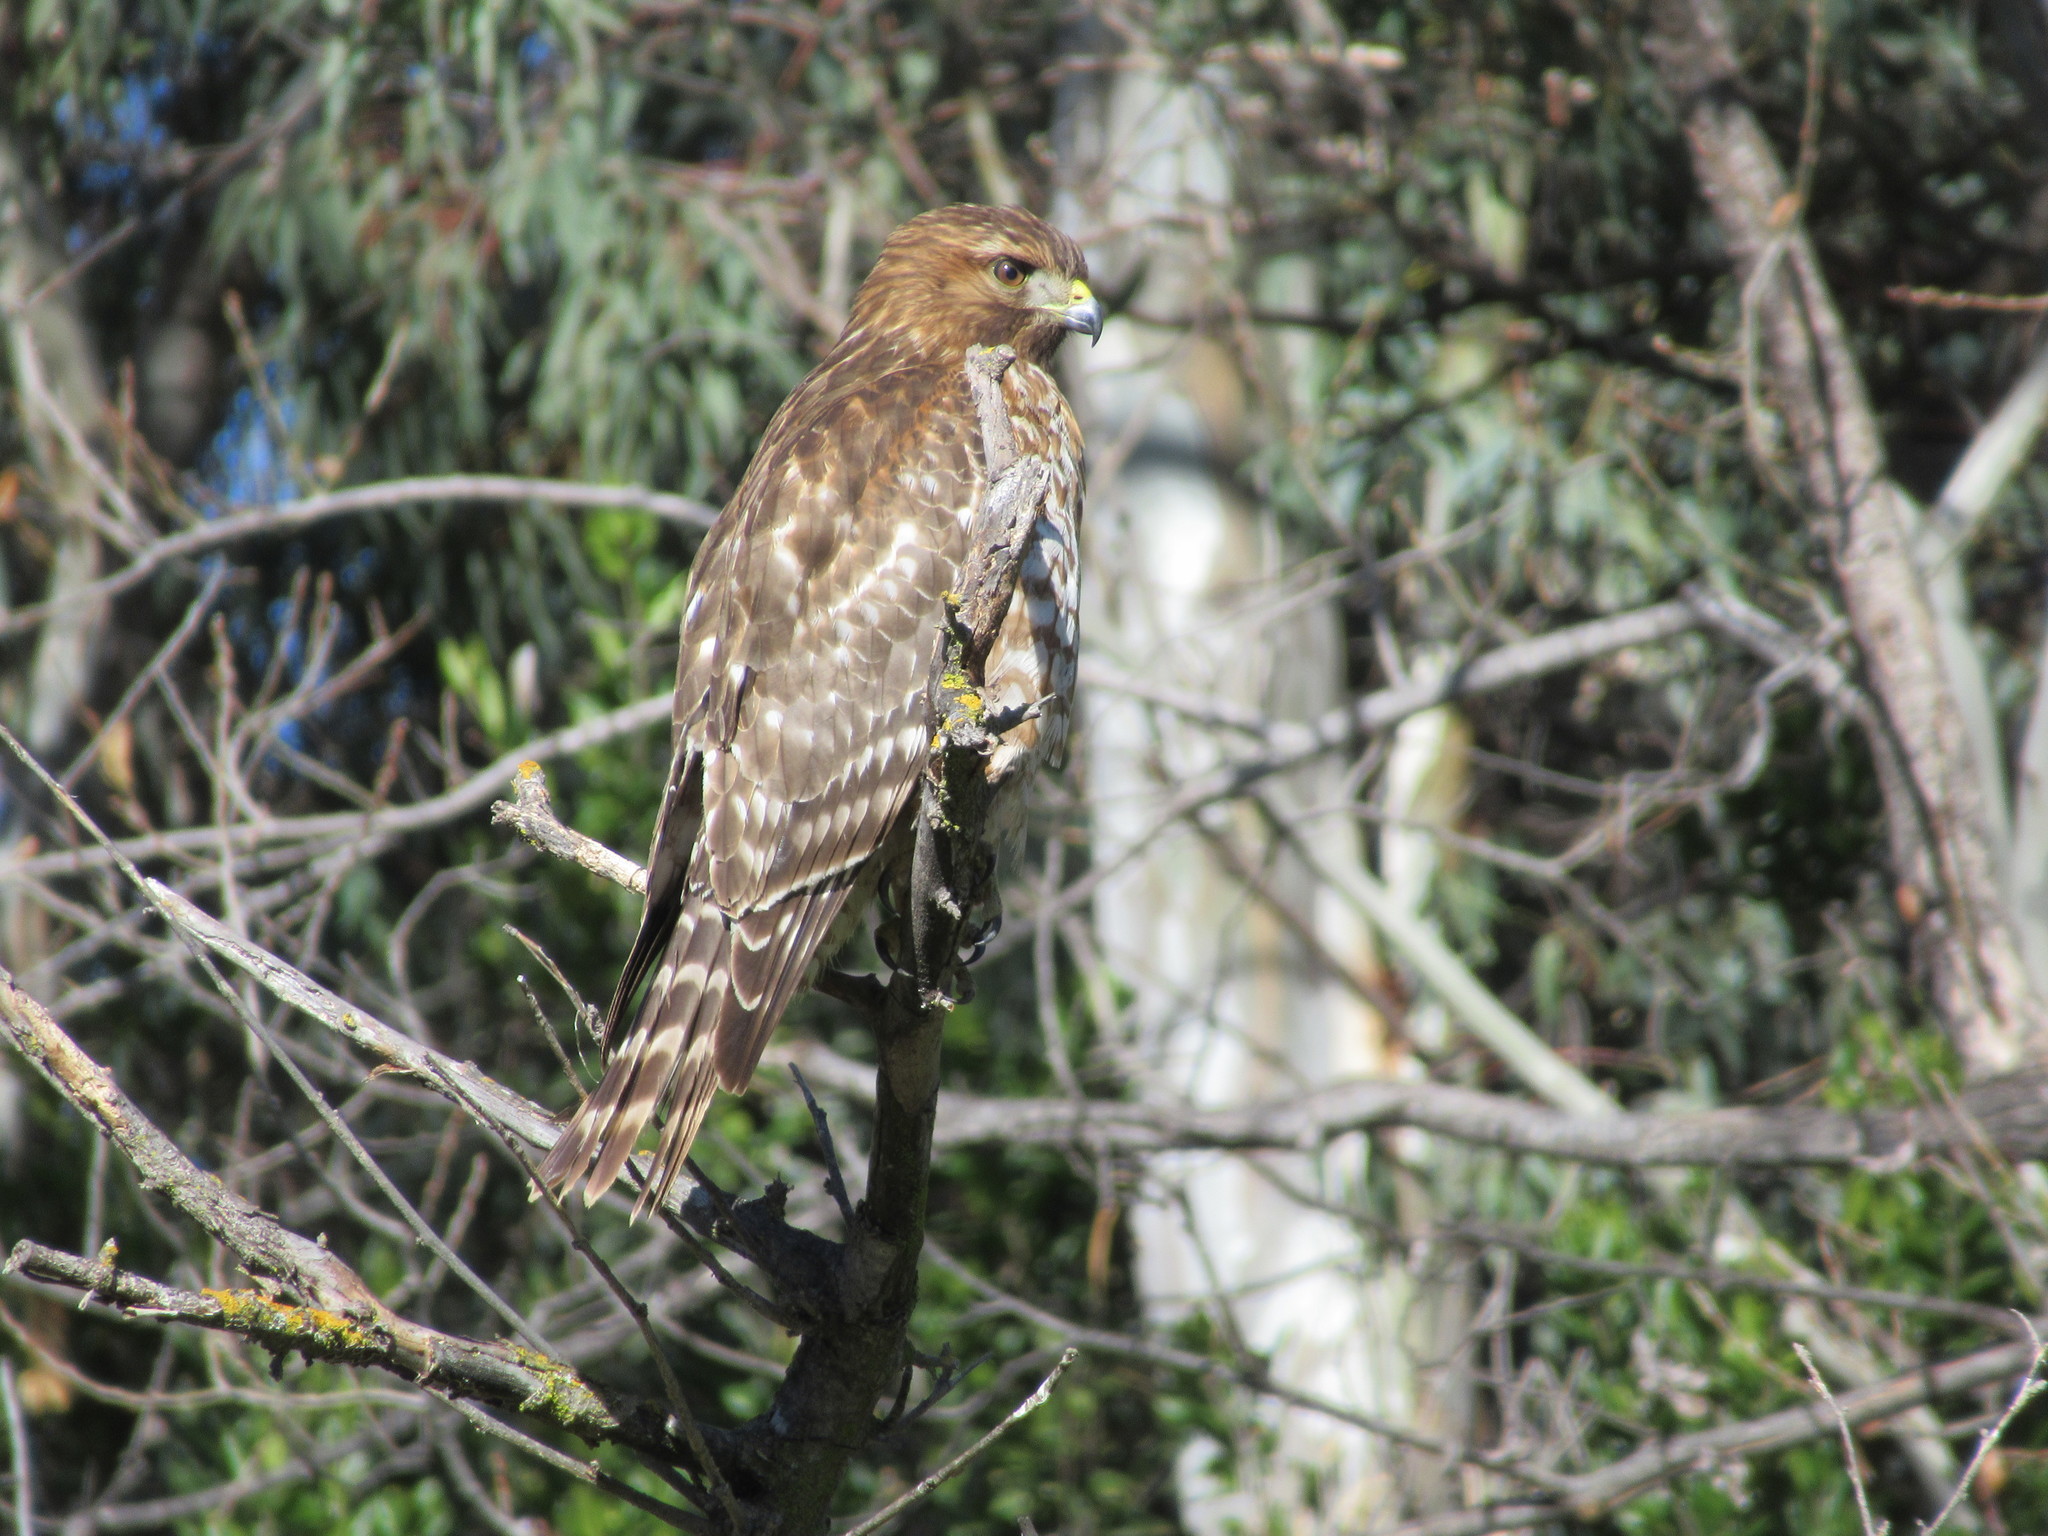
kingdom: Animalia
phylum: Chordata
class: Aves
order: Accipitriformes
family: Accipitridae
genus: Buteo
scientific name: Buteo lineatus
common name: Red-shouldered hawk
